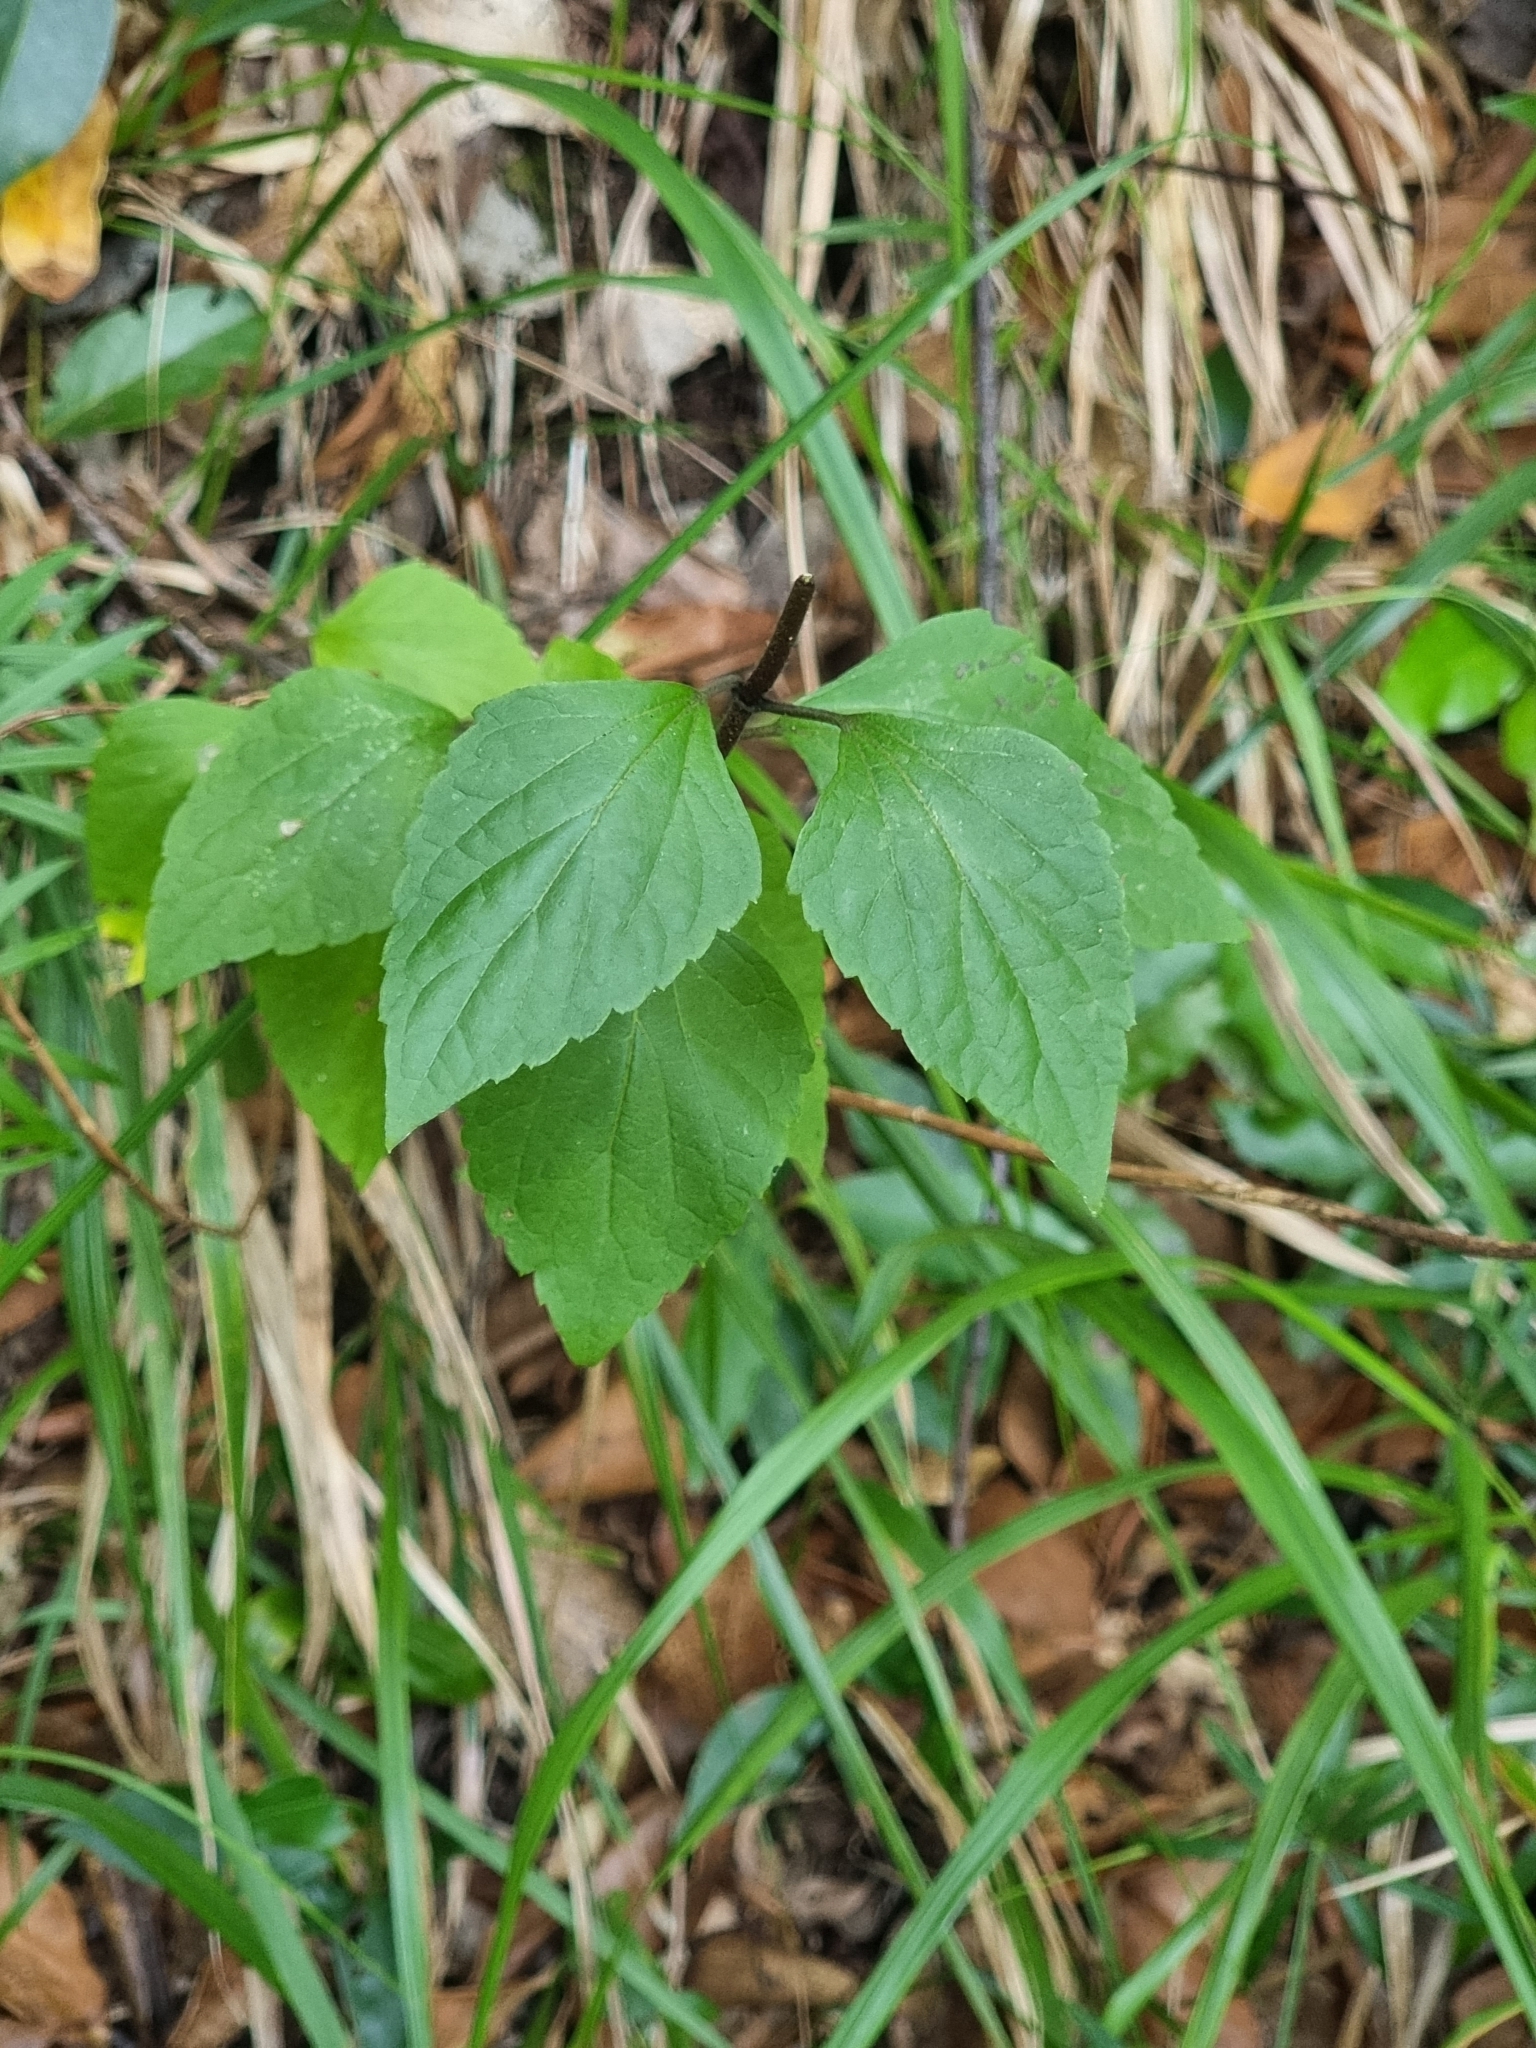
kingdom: Plantae
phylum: Tracheophyta
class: Magnoliopsida
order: Asterales
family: Asteraceae
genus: Ageratina
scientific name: Ageratina adenophora
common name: Sticky snakeroot
